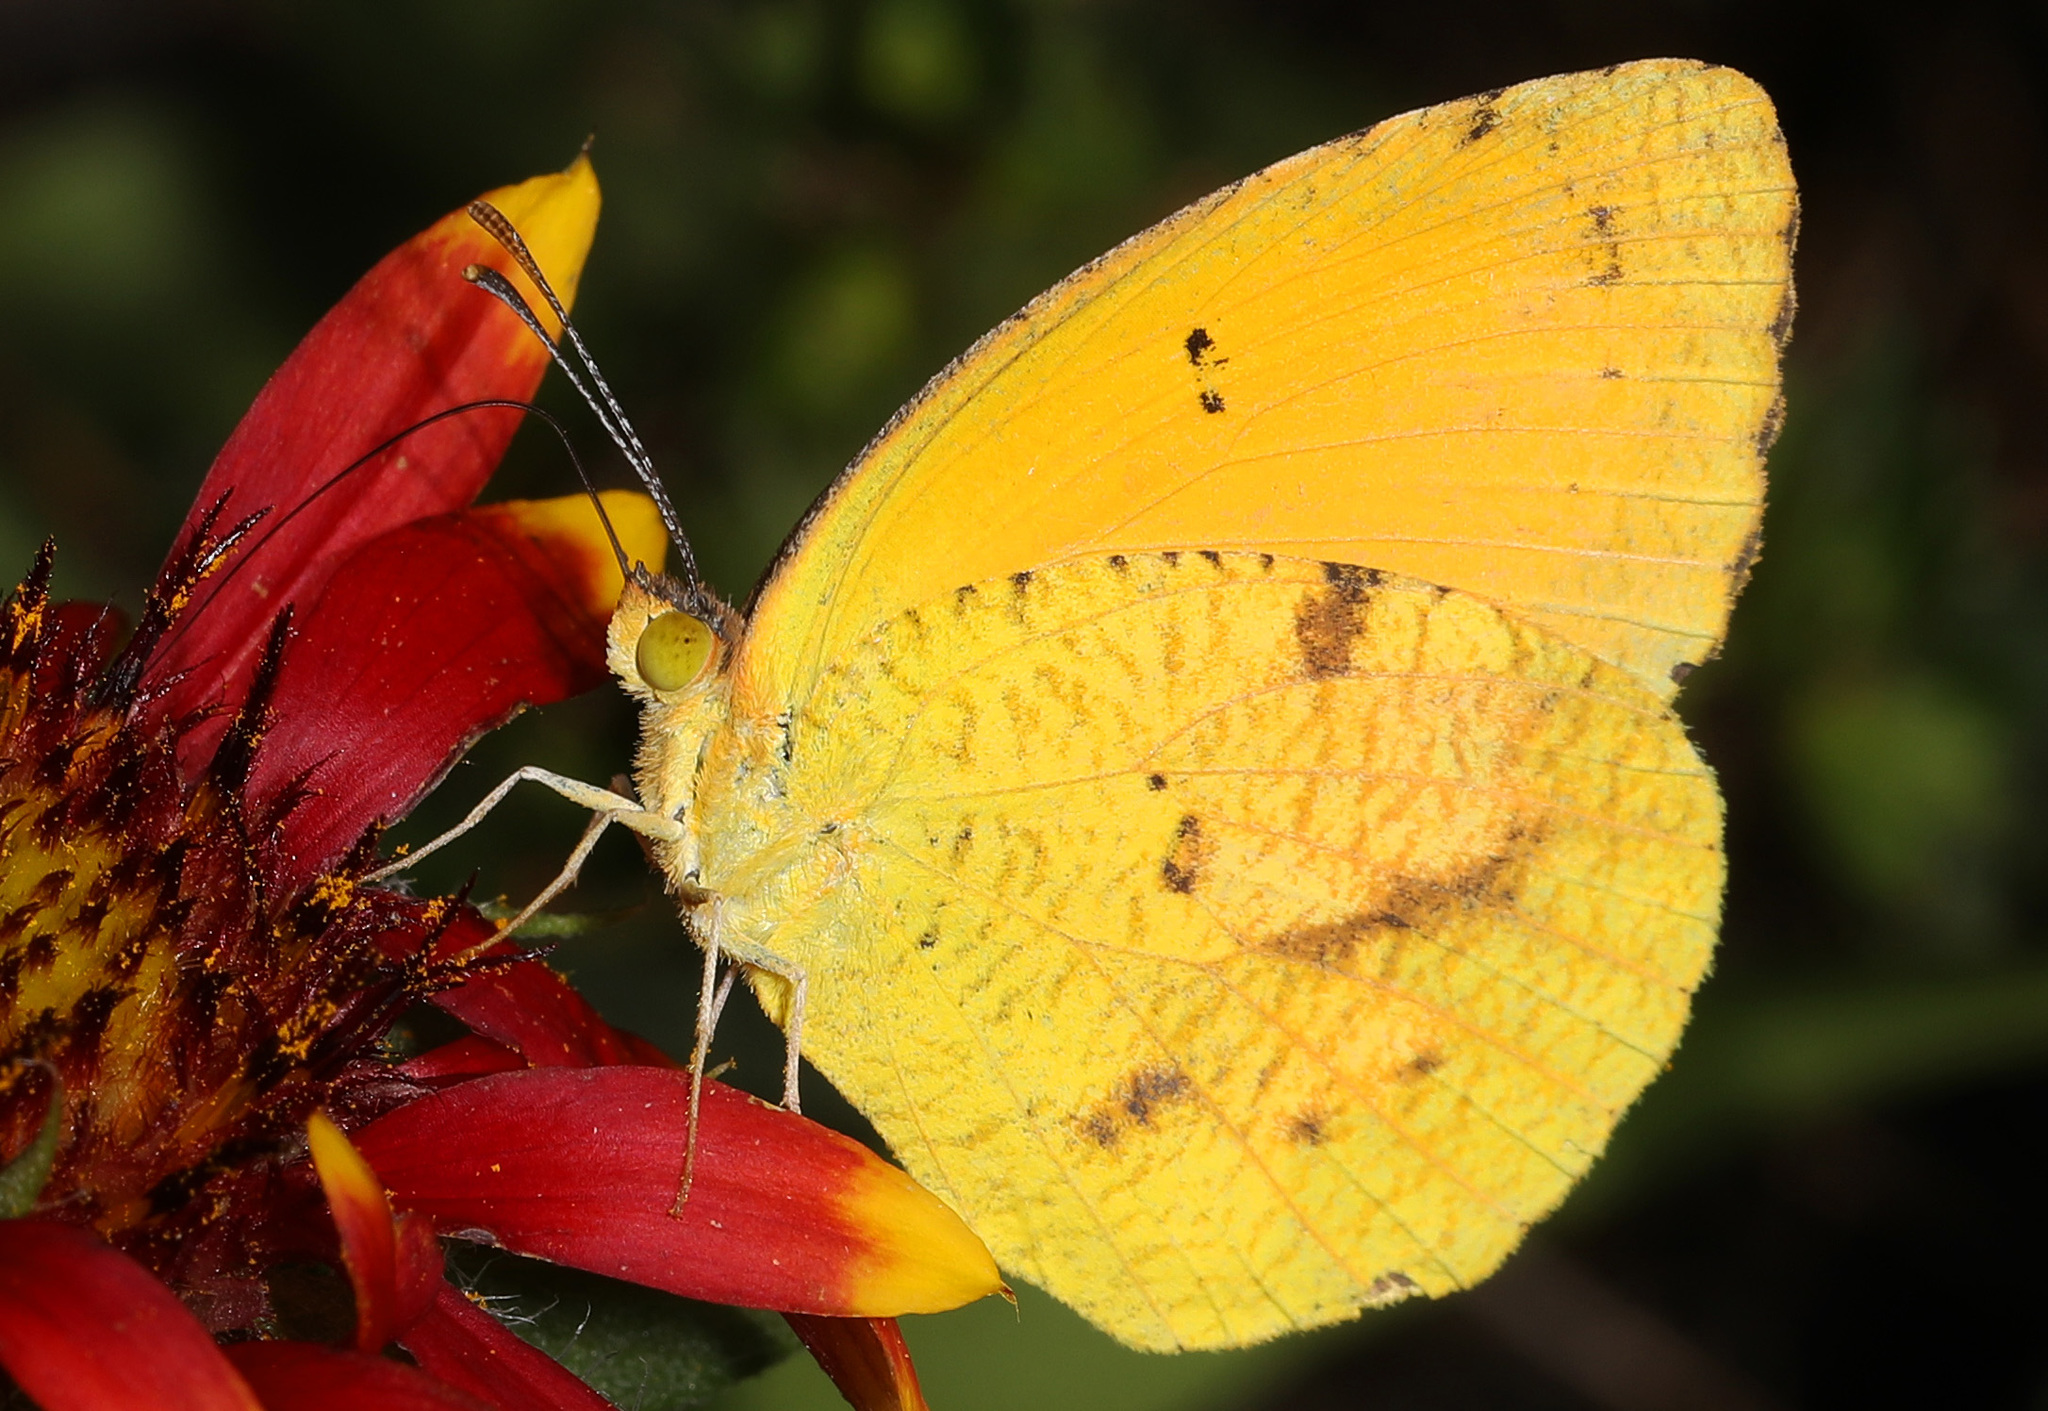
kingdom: Animalia
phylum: Arthropoda
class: Insecta
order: Lepidoptera
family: Pieridae
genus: Abaeis
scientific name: Abaeis nicippe
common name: Sleepy orange
